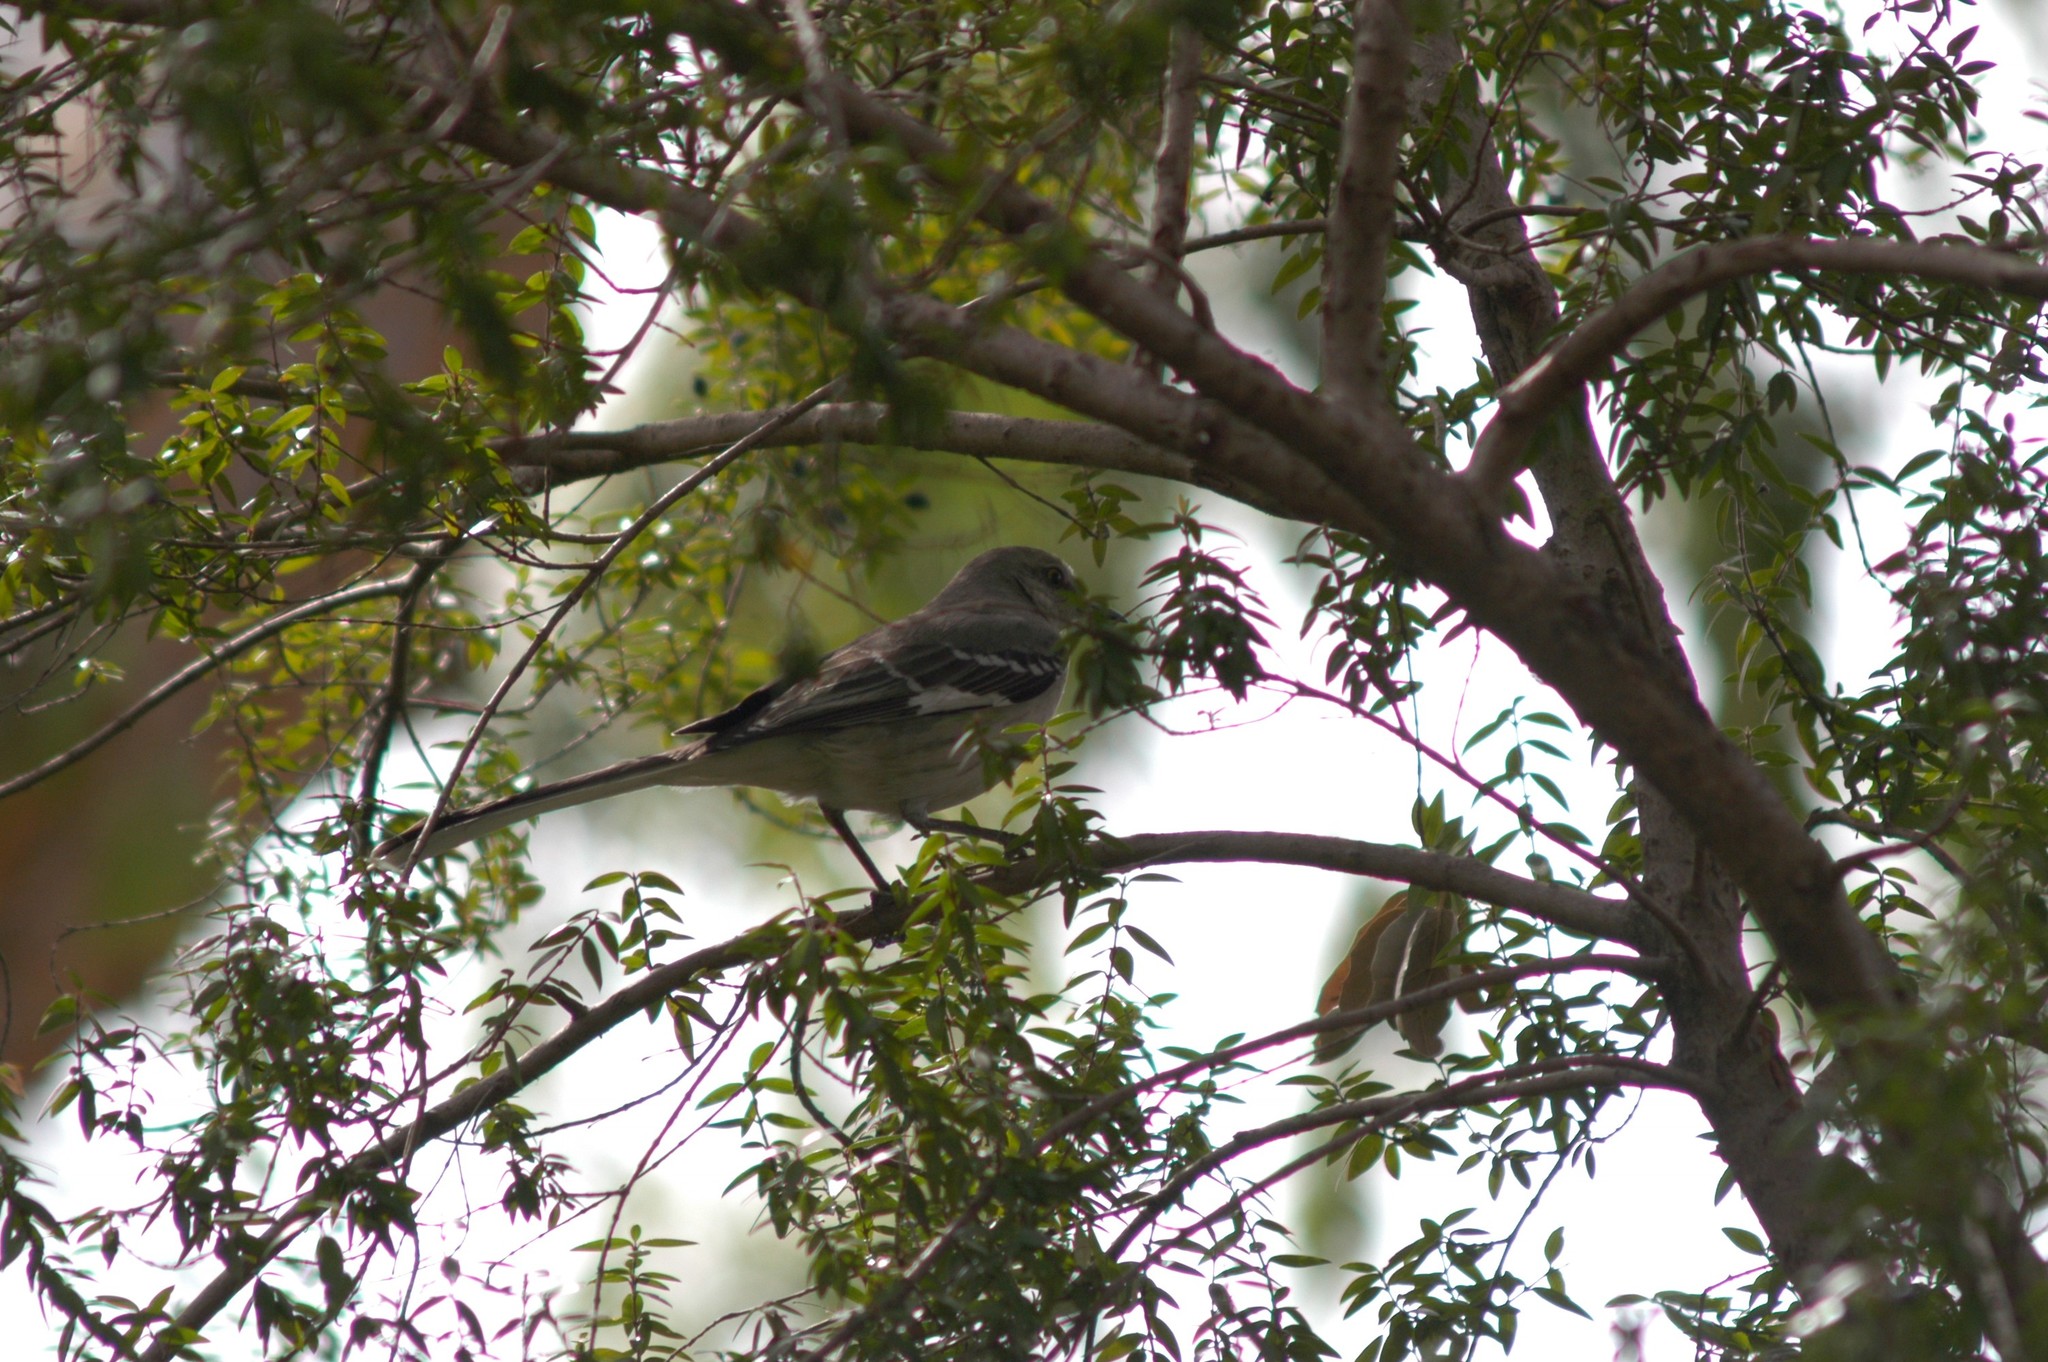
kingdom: Animalia
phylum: Chordata
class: Aves
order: Passeriformes
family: Mimidae
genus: Mimus
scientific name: Mimus polyglottos
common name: Northern mockingbird
